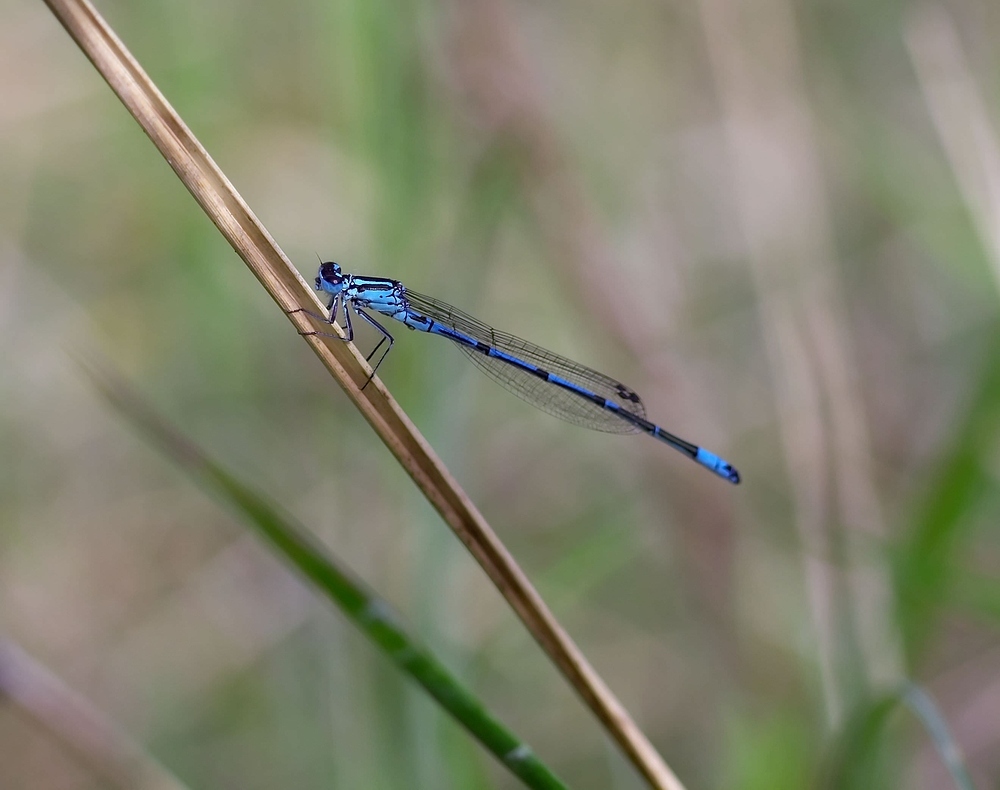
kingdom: Animalia
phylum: Arthropoda
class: Insecta
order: Odonata
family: Coenagrionidae
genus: Coenagrion
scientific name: Coenagrion puella
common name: Azure damselfly
